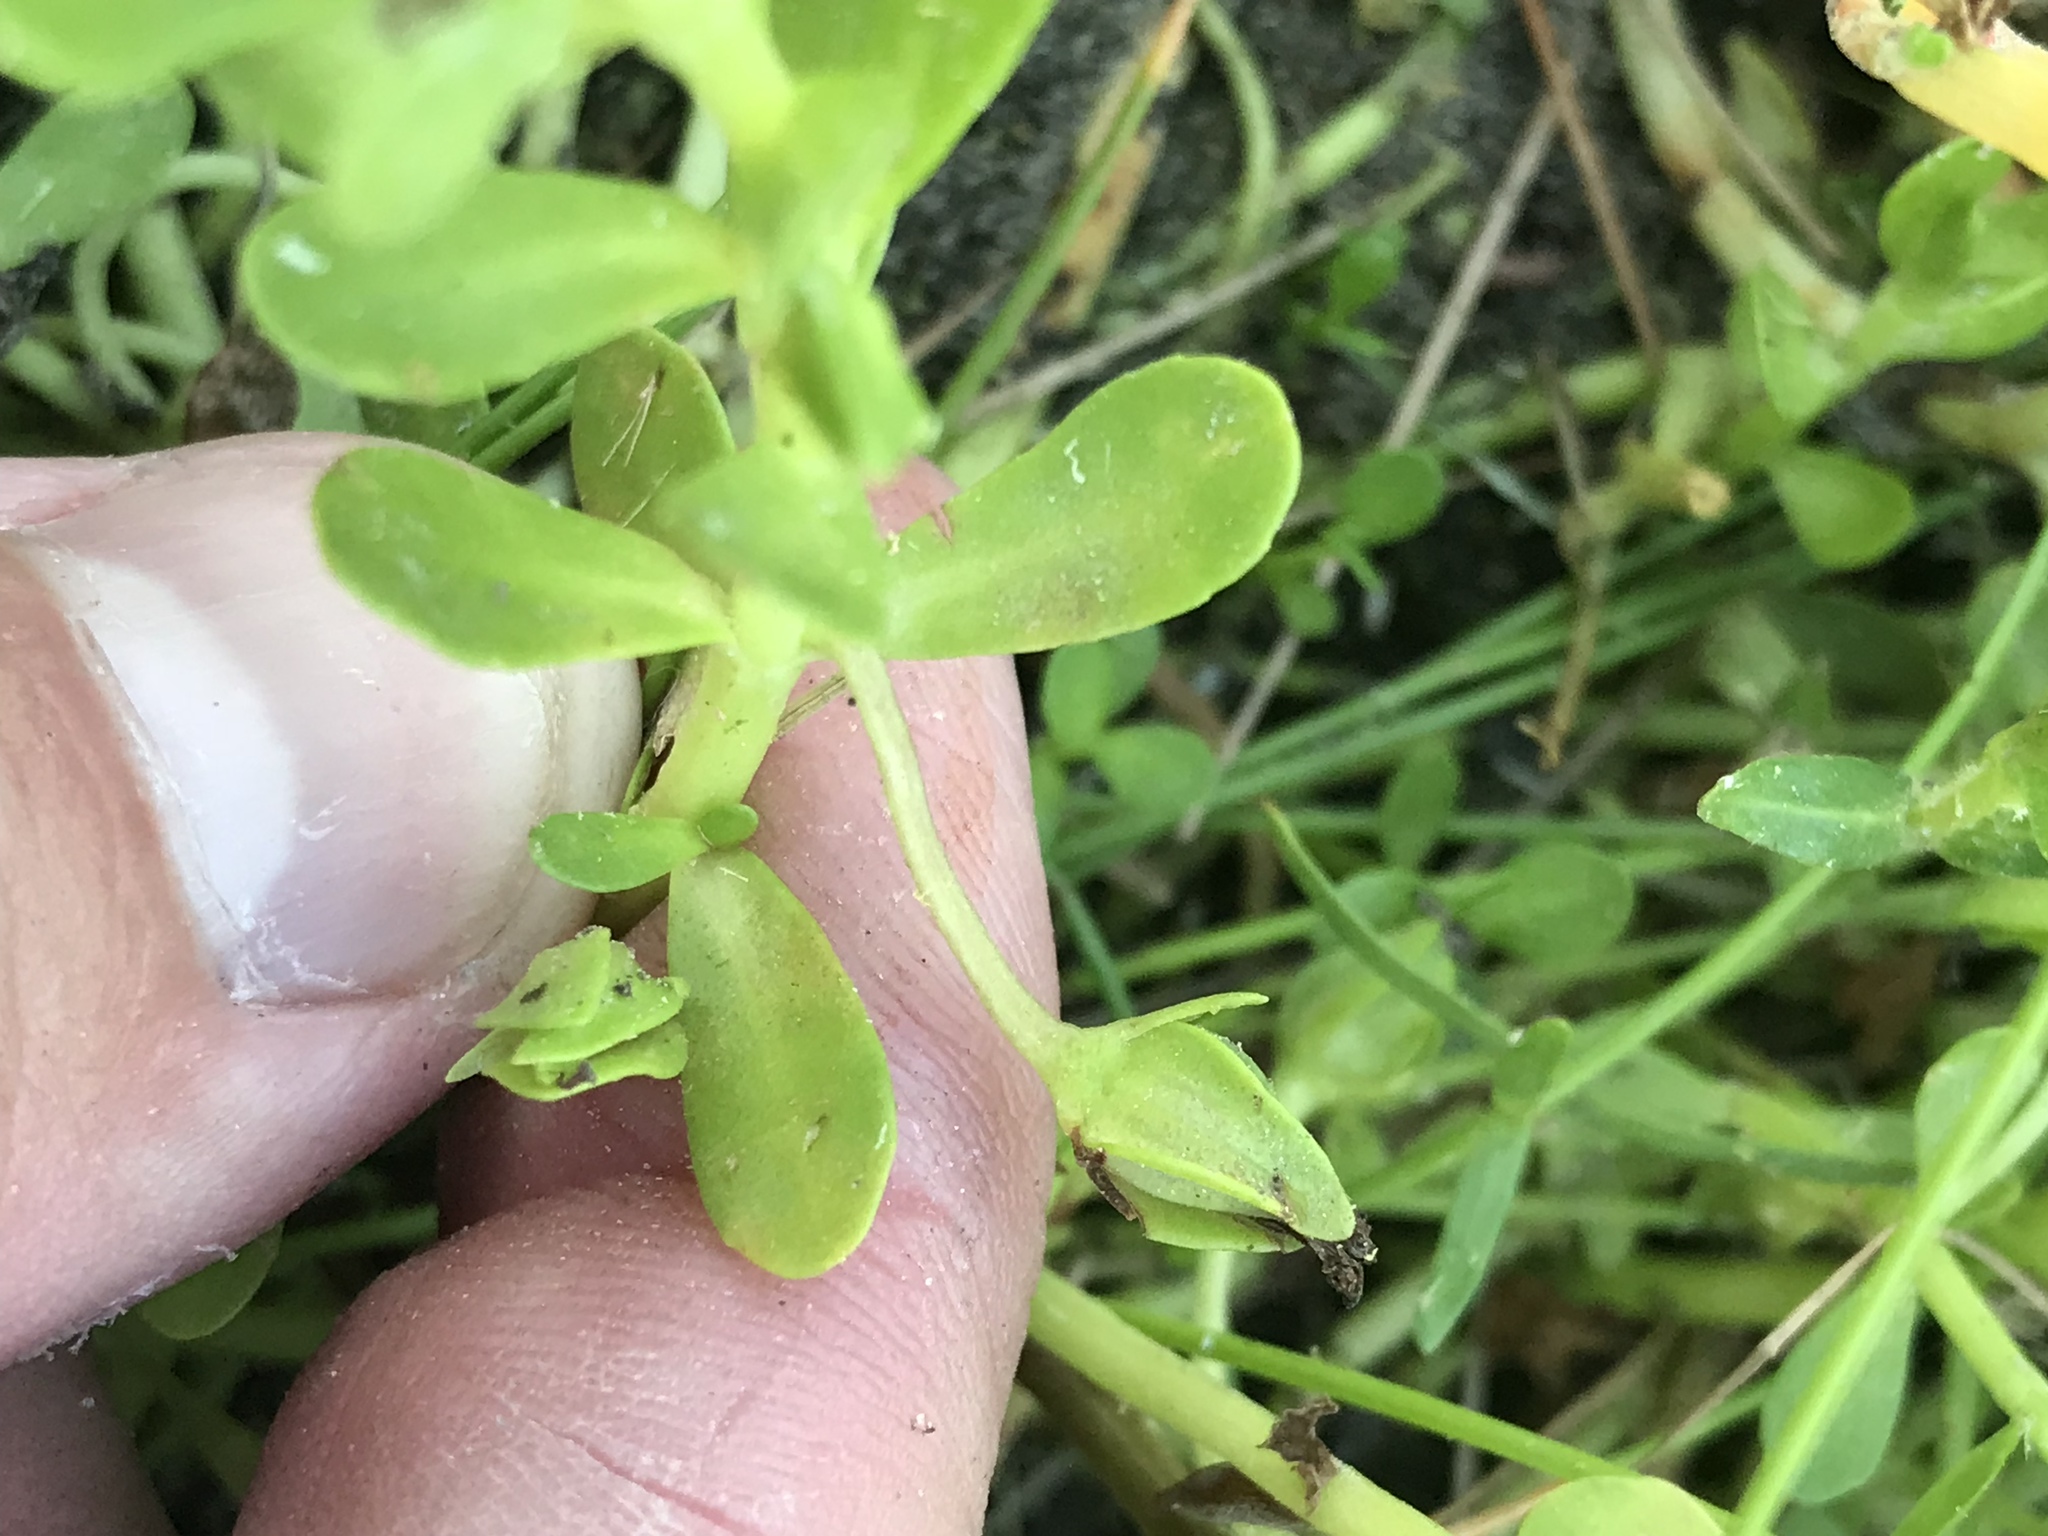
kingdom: Plantae
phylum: Tracheophyta
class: Magnoliopsida
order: Lamiales
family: Plantaginaceae
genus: Bacopa
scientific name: Bacopa monnieri
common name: Indian-pennywort
